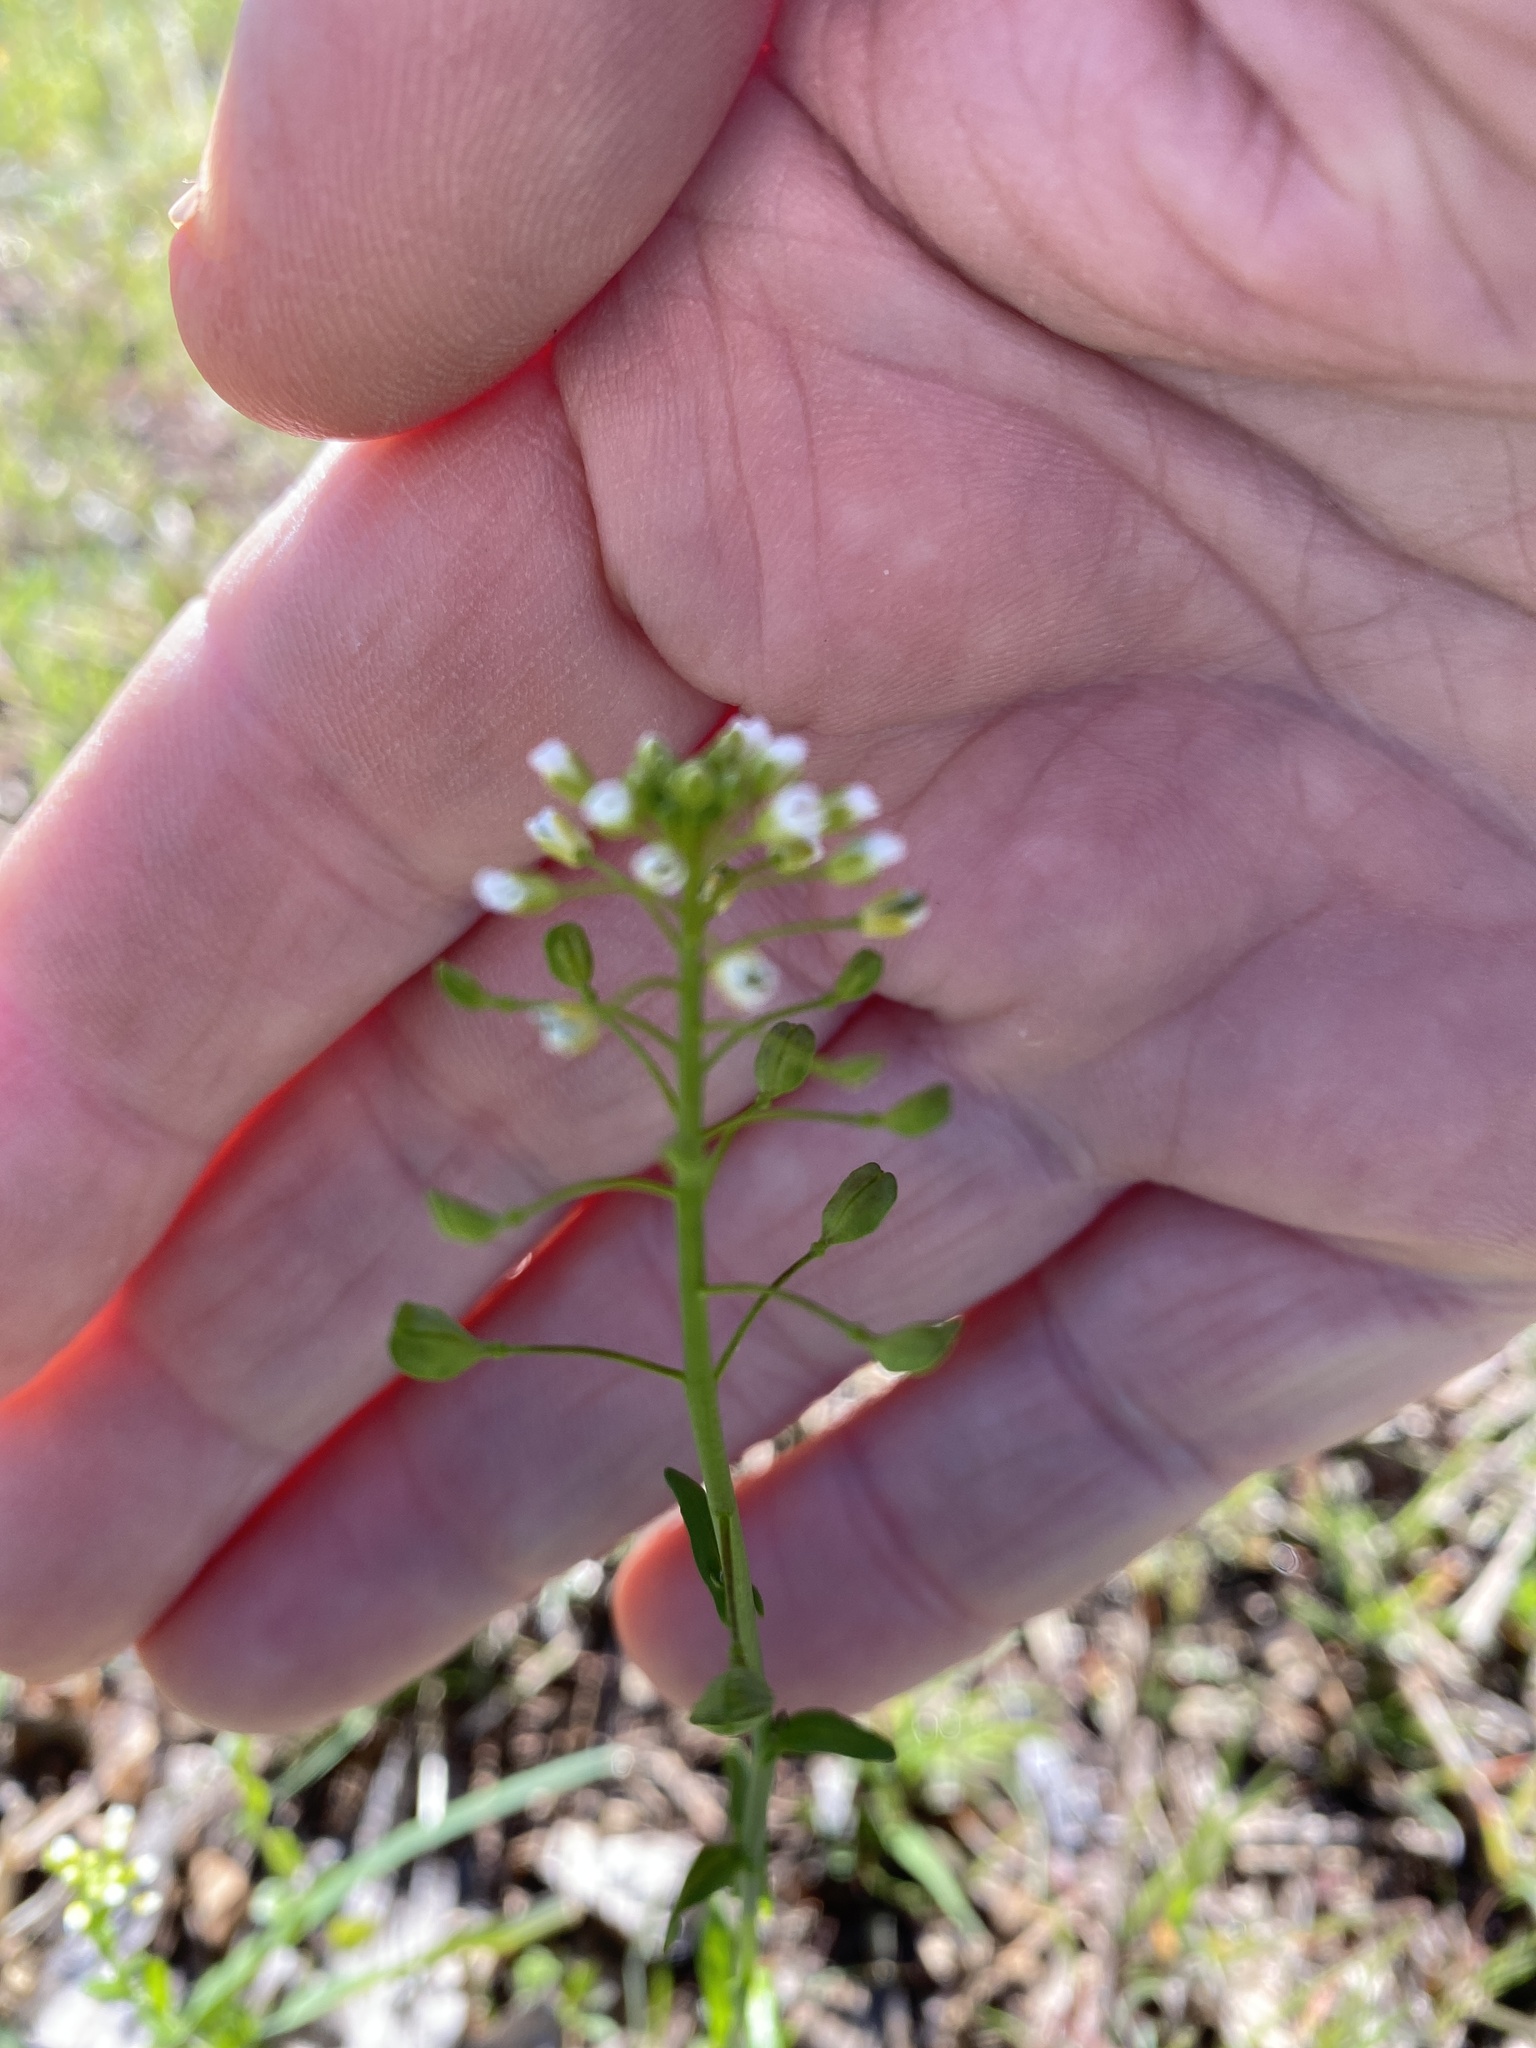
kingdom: Plantae
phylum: Tracheophyta
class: Magnoliopsida
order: Brassicales
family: Brassicaceae
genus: Mummenhoffia
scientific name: Mummenhoffia alliacea
